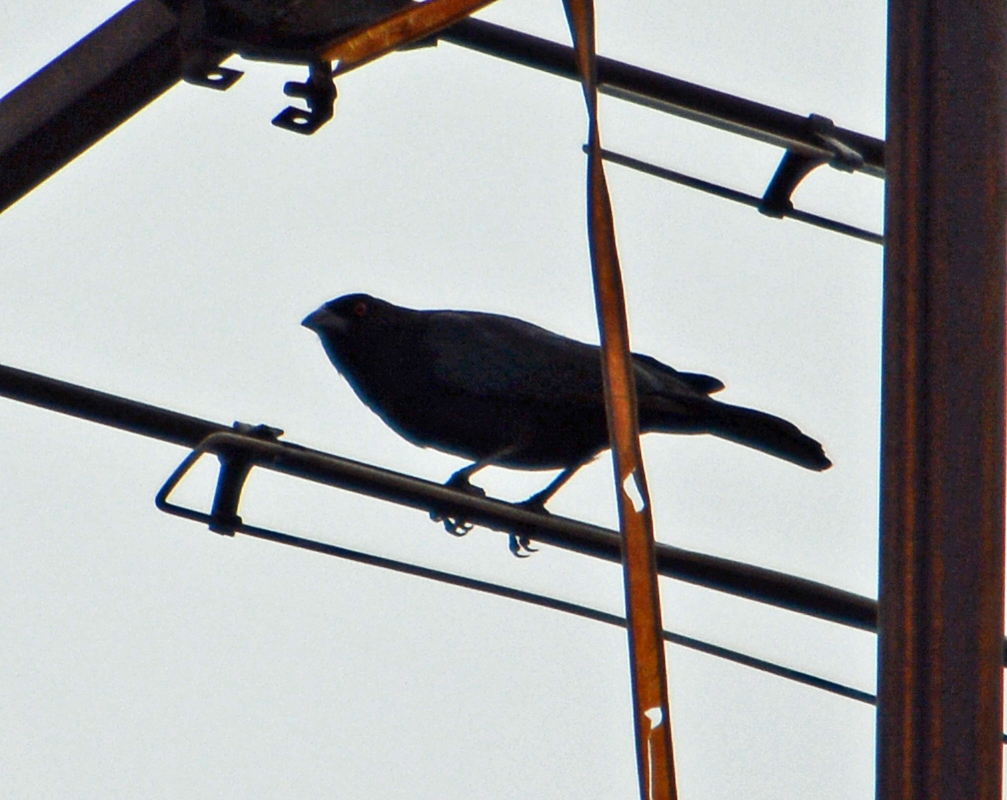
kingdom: Animalia
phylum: Chordata
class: Aves
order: Passeriformes
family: Icteridae
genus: Molothrus
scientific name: Molothrus aeneus
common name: Bronzed cowbird
